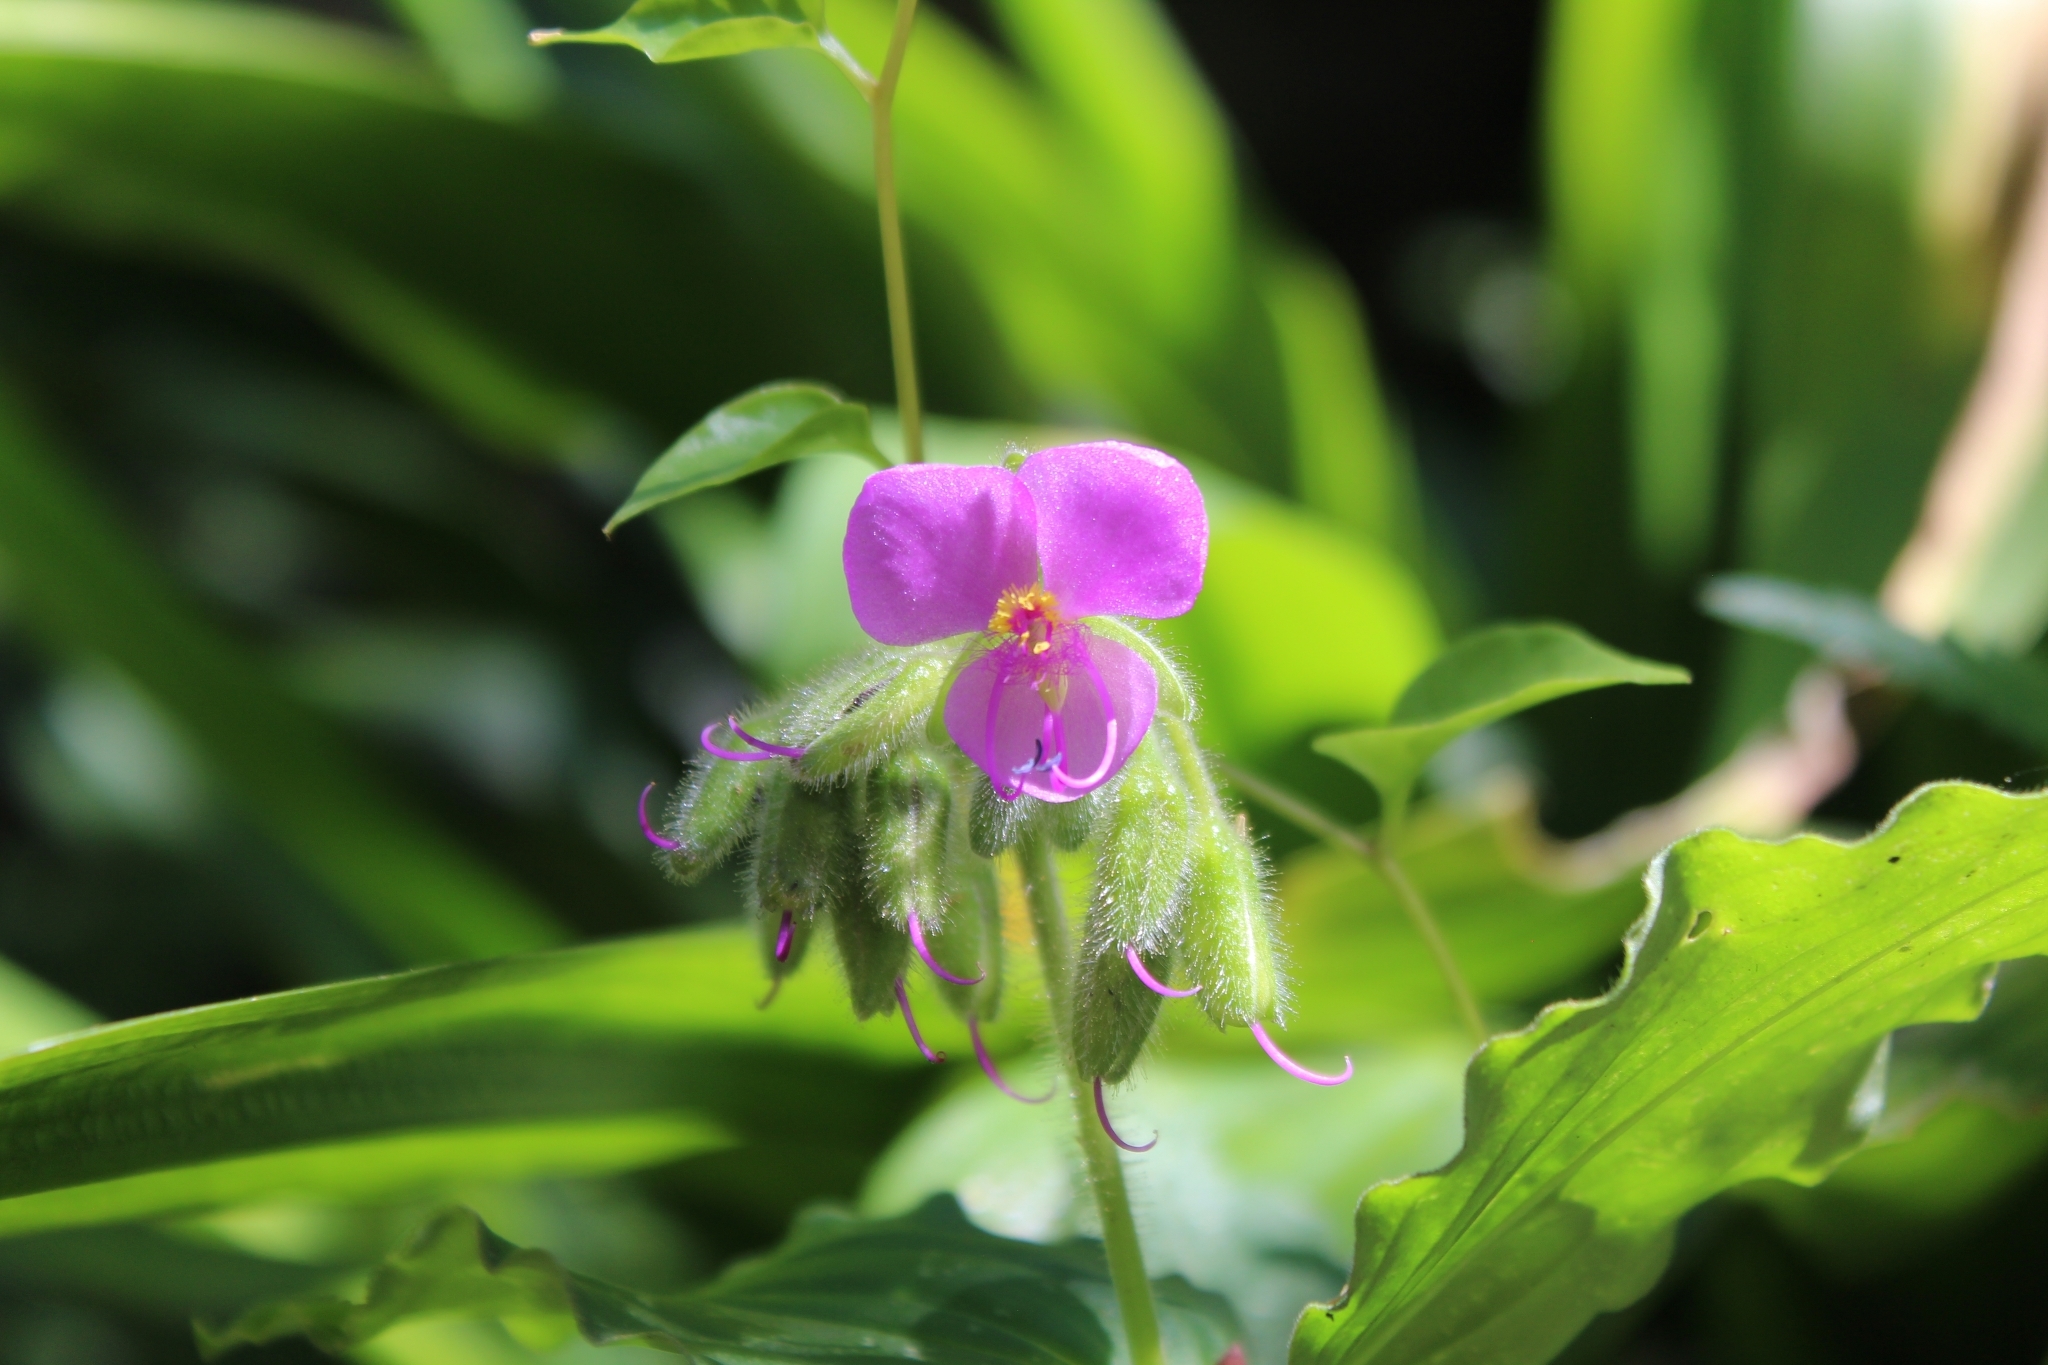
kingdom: Plantae
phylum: Tracheophyta
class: Liliopsida
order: Commelinales
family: Commelinaceae
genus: Tinantia
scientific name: Tinantia erecta
